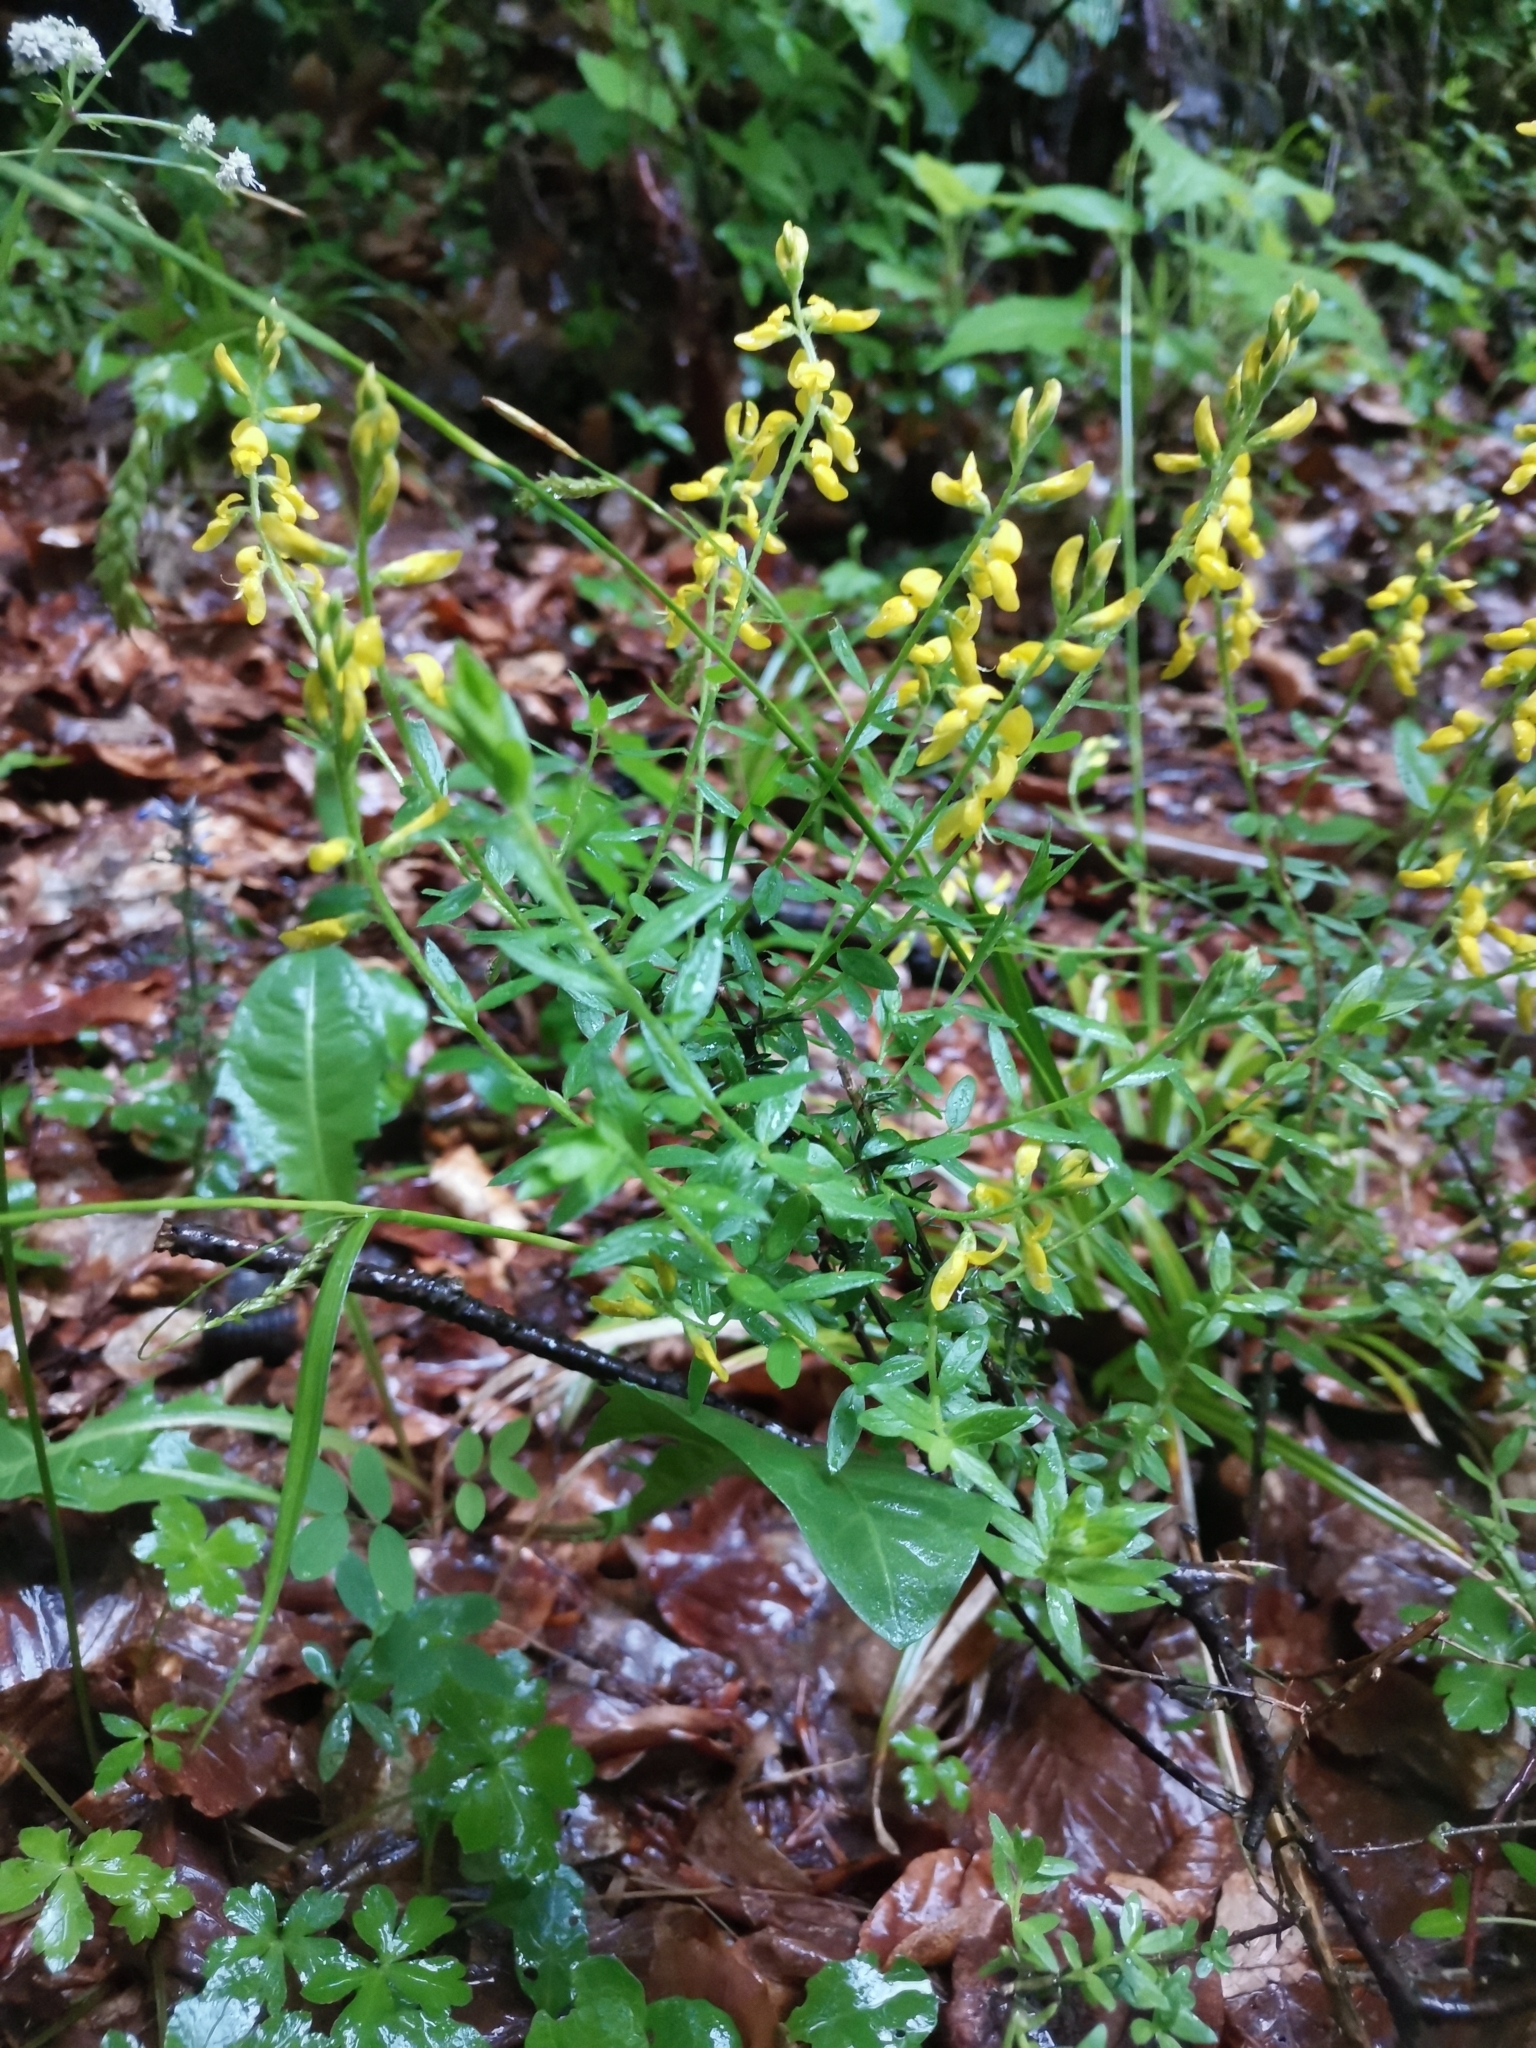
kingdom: Plantae
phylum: Tracheophyta
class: Magnoliopsida
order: Fabales
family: Fabaceae
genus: Genista
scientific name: Genista germanica
